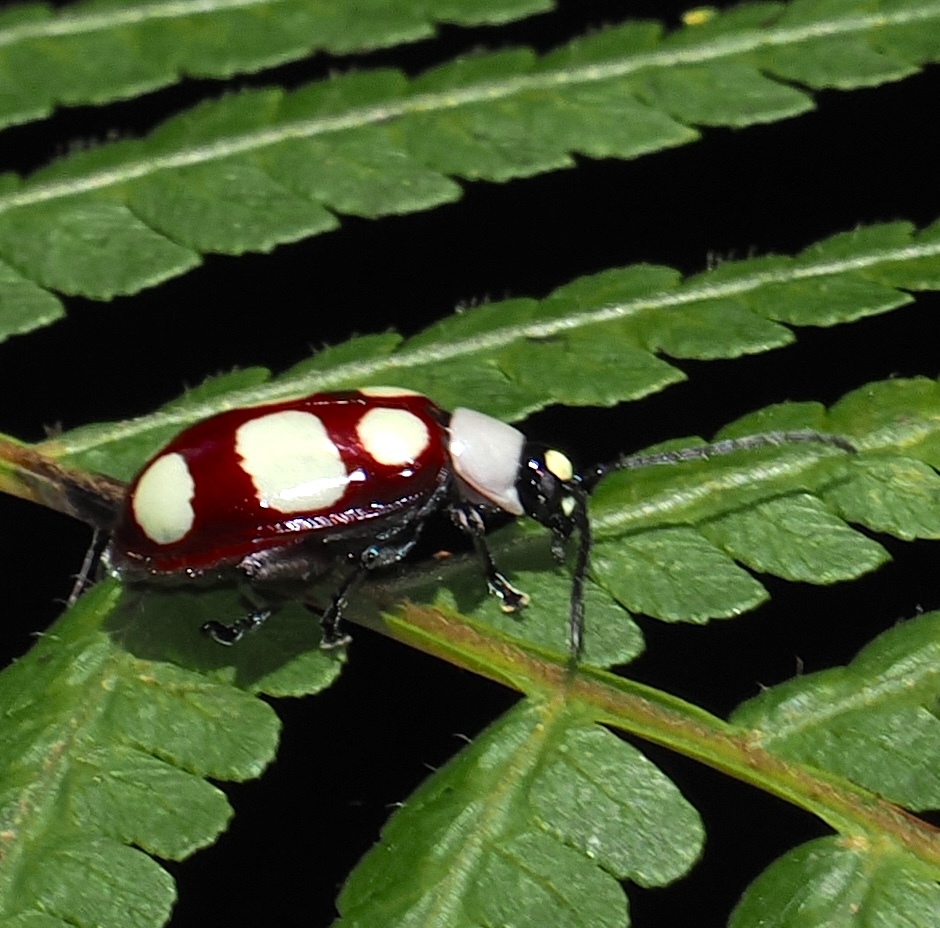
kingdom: Animalia
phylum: Arthropoda
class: Insecta
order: Coleoptera
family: Chrysomelidae
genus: Omophoita
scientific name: Omophoita
